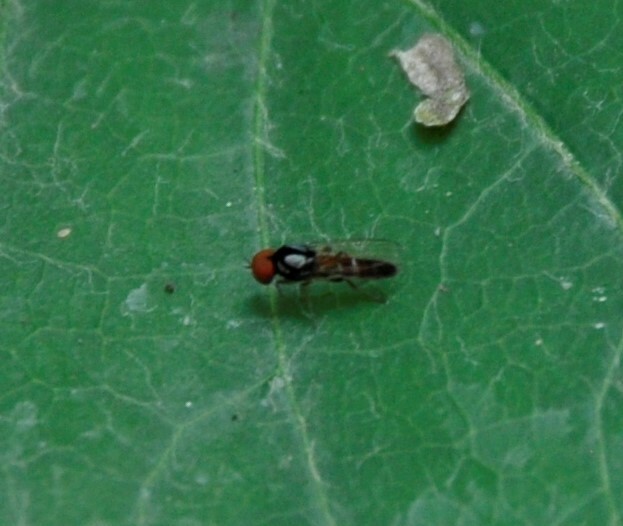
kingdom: Animalia
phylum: Arthropoda
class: Insecta
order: Diptera
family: Platypezidae
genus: Bertamyia
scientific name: Bertamyia notata
